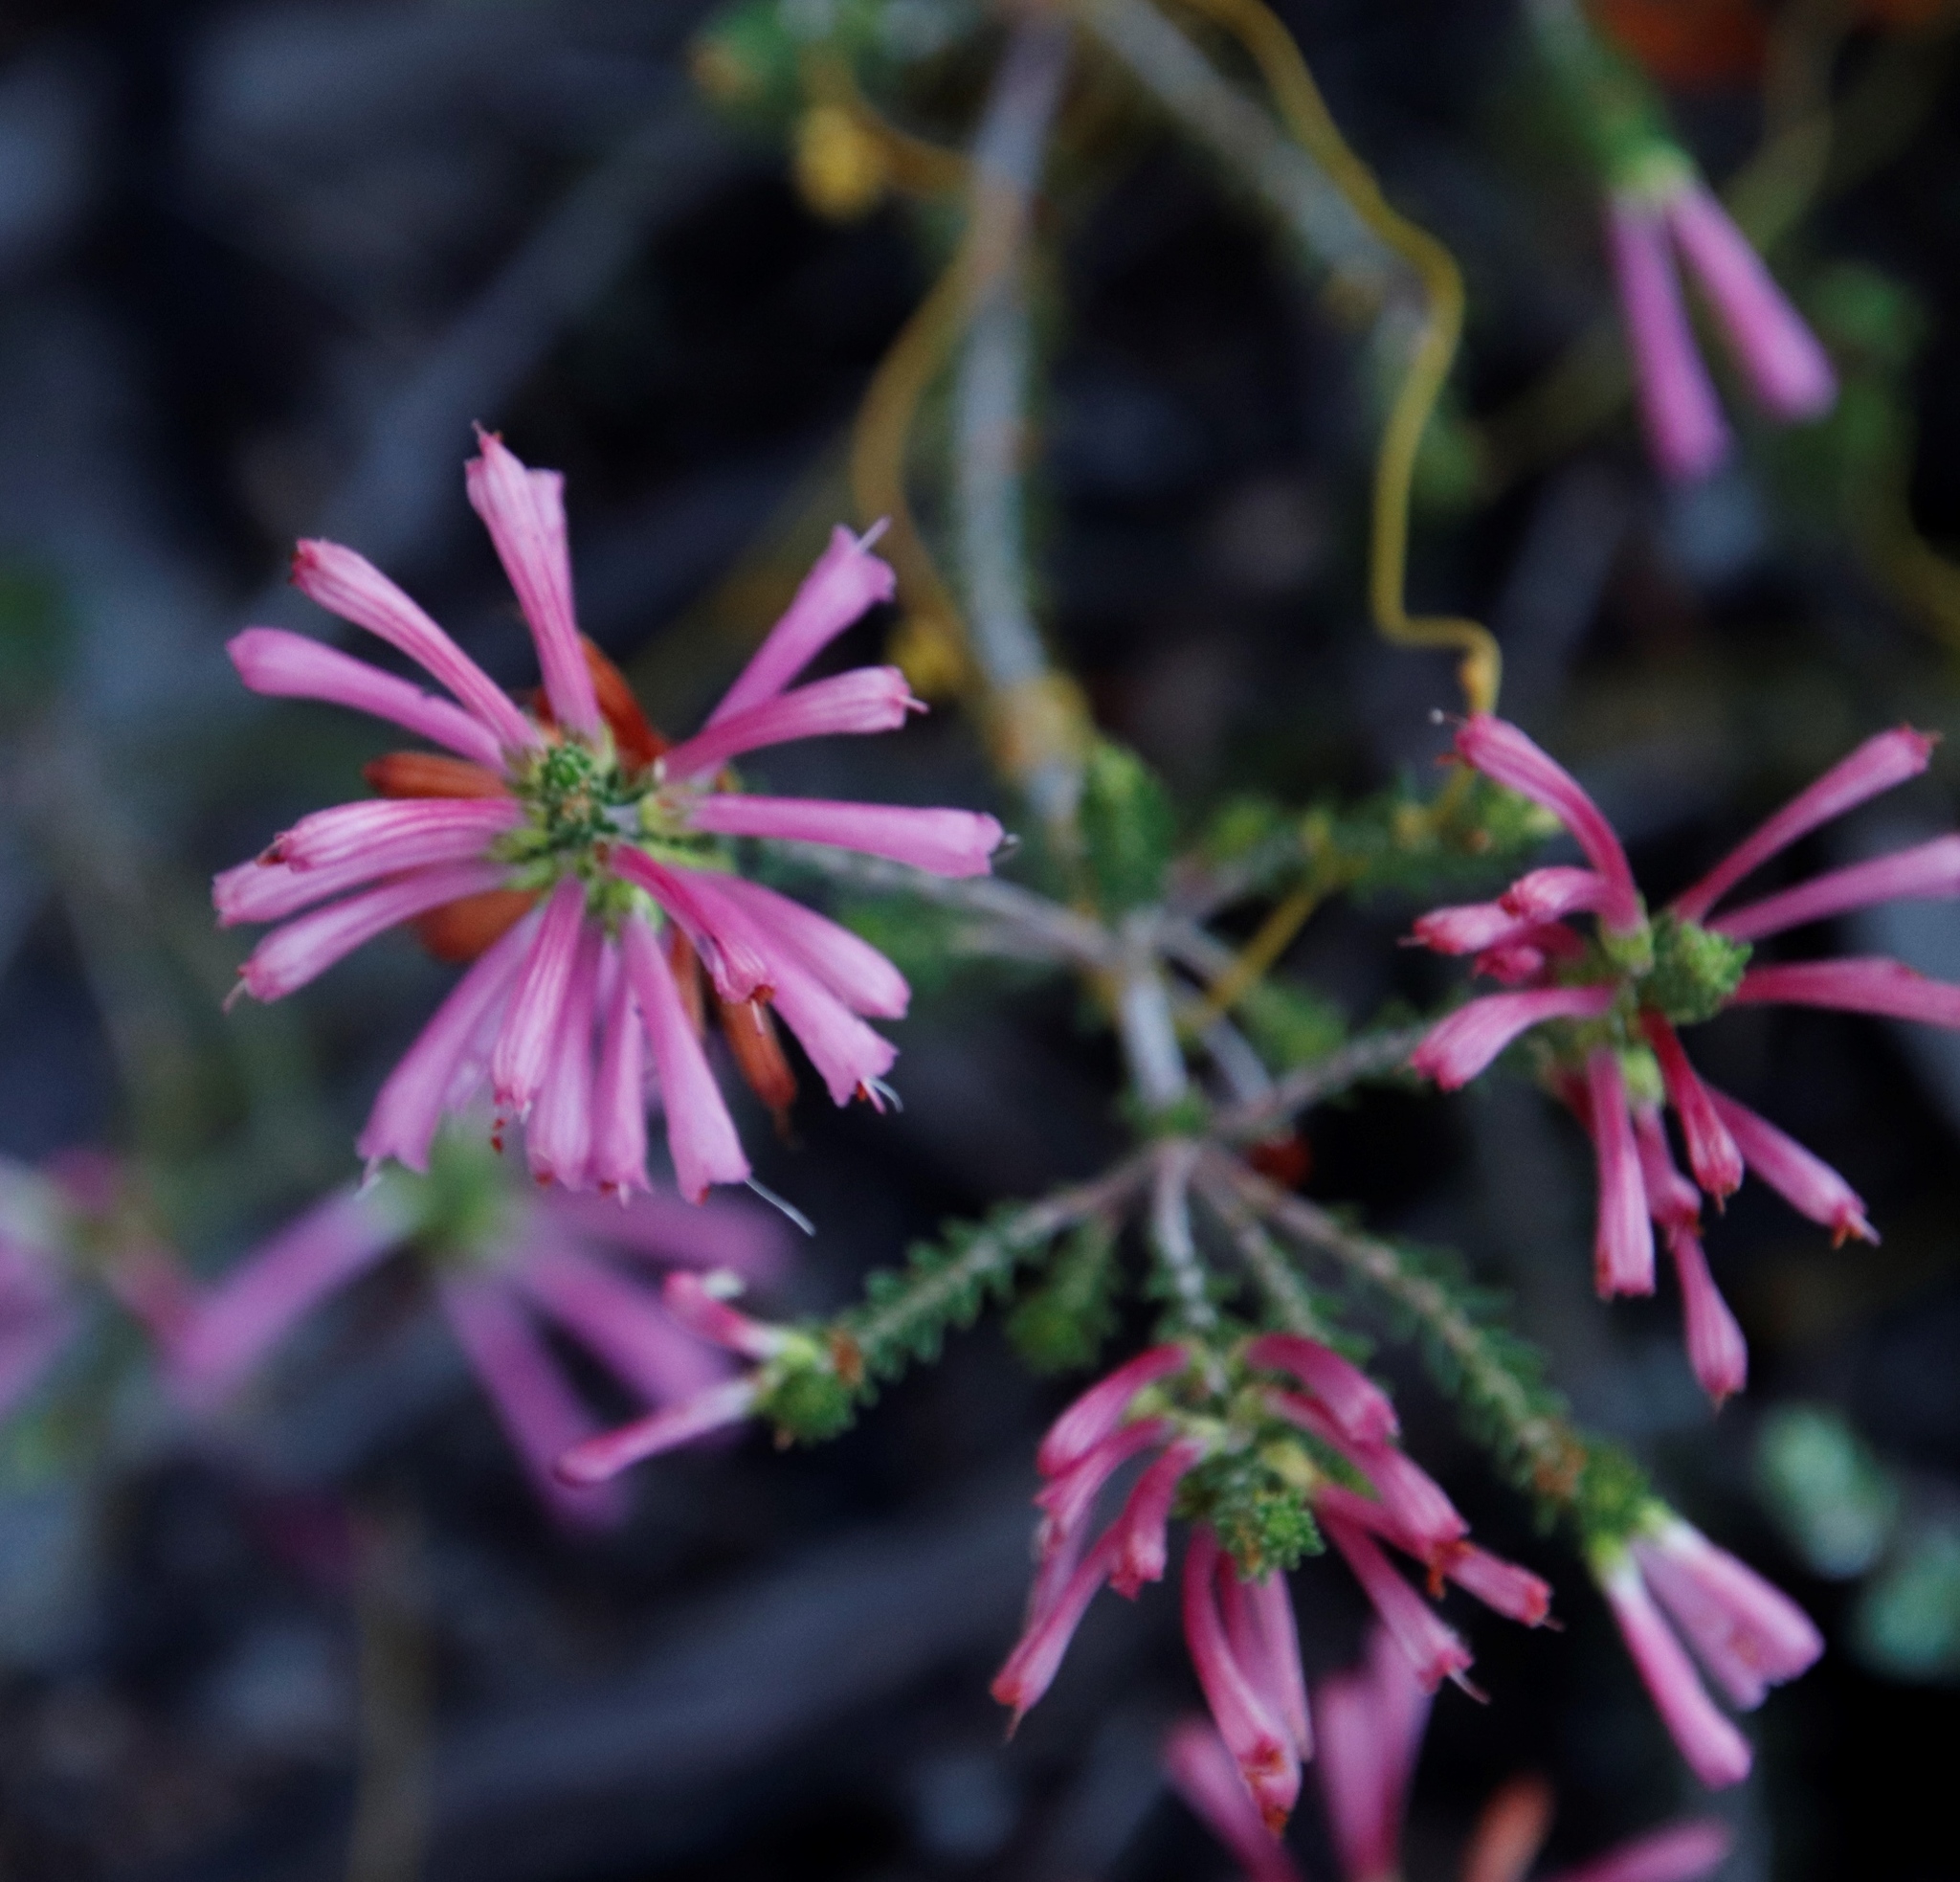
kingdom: Plantae
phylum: Tracheophyta
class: Magnoliopsida
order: Ericales
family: Ericaceae
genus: Erica
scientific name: Erica abietina
